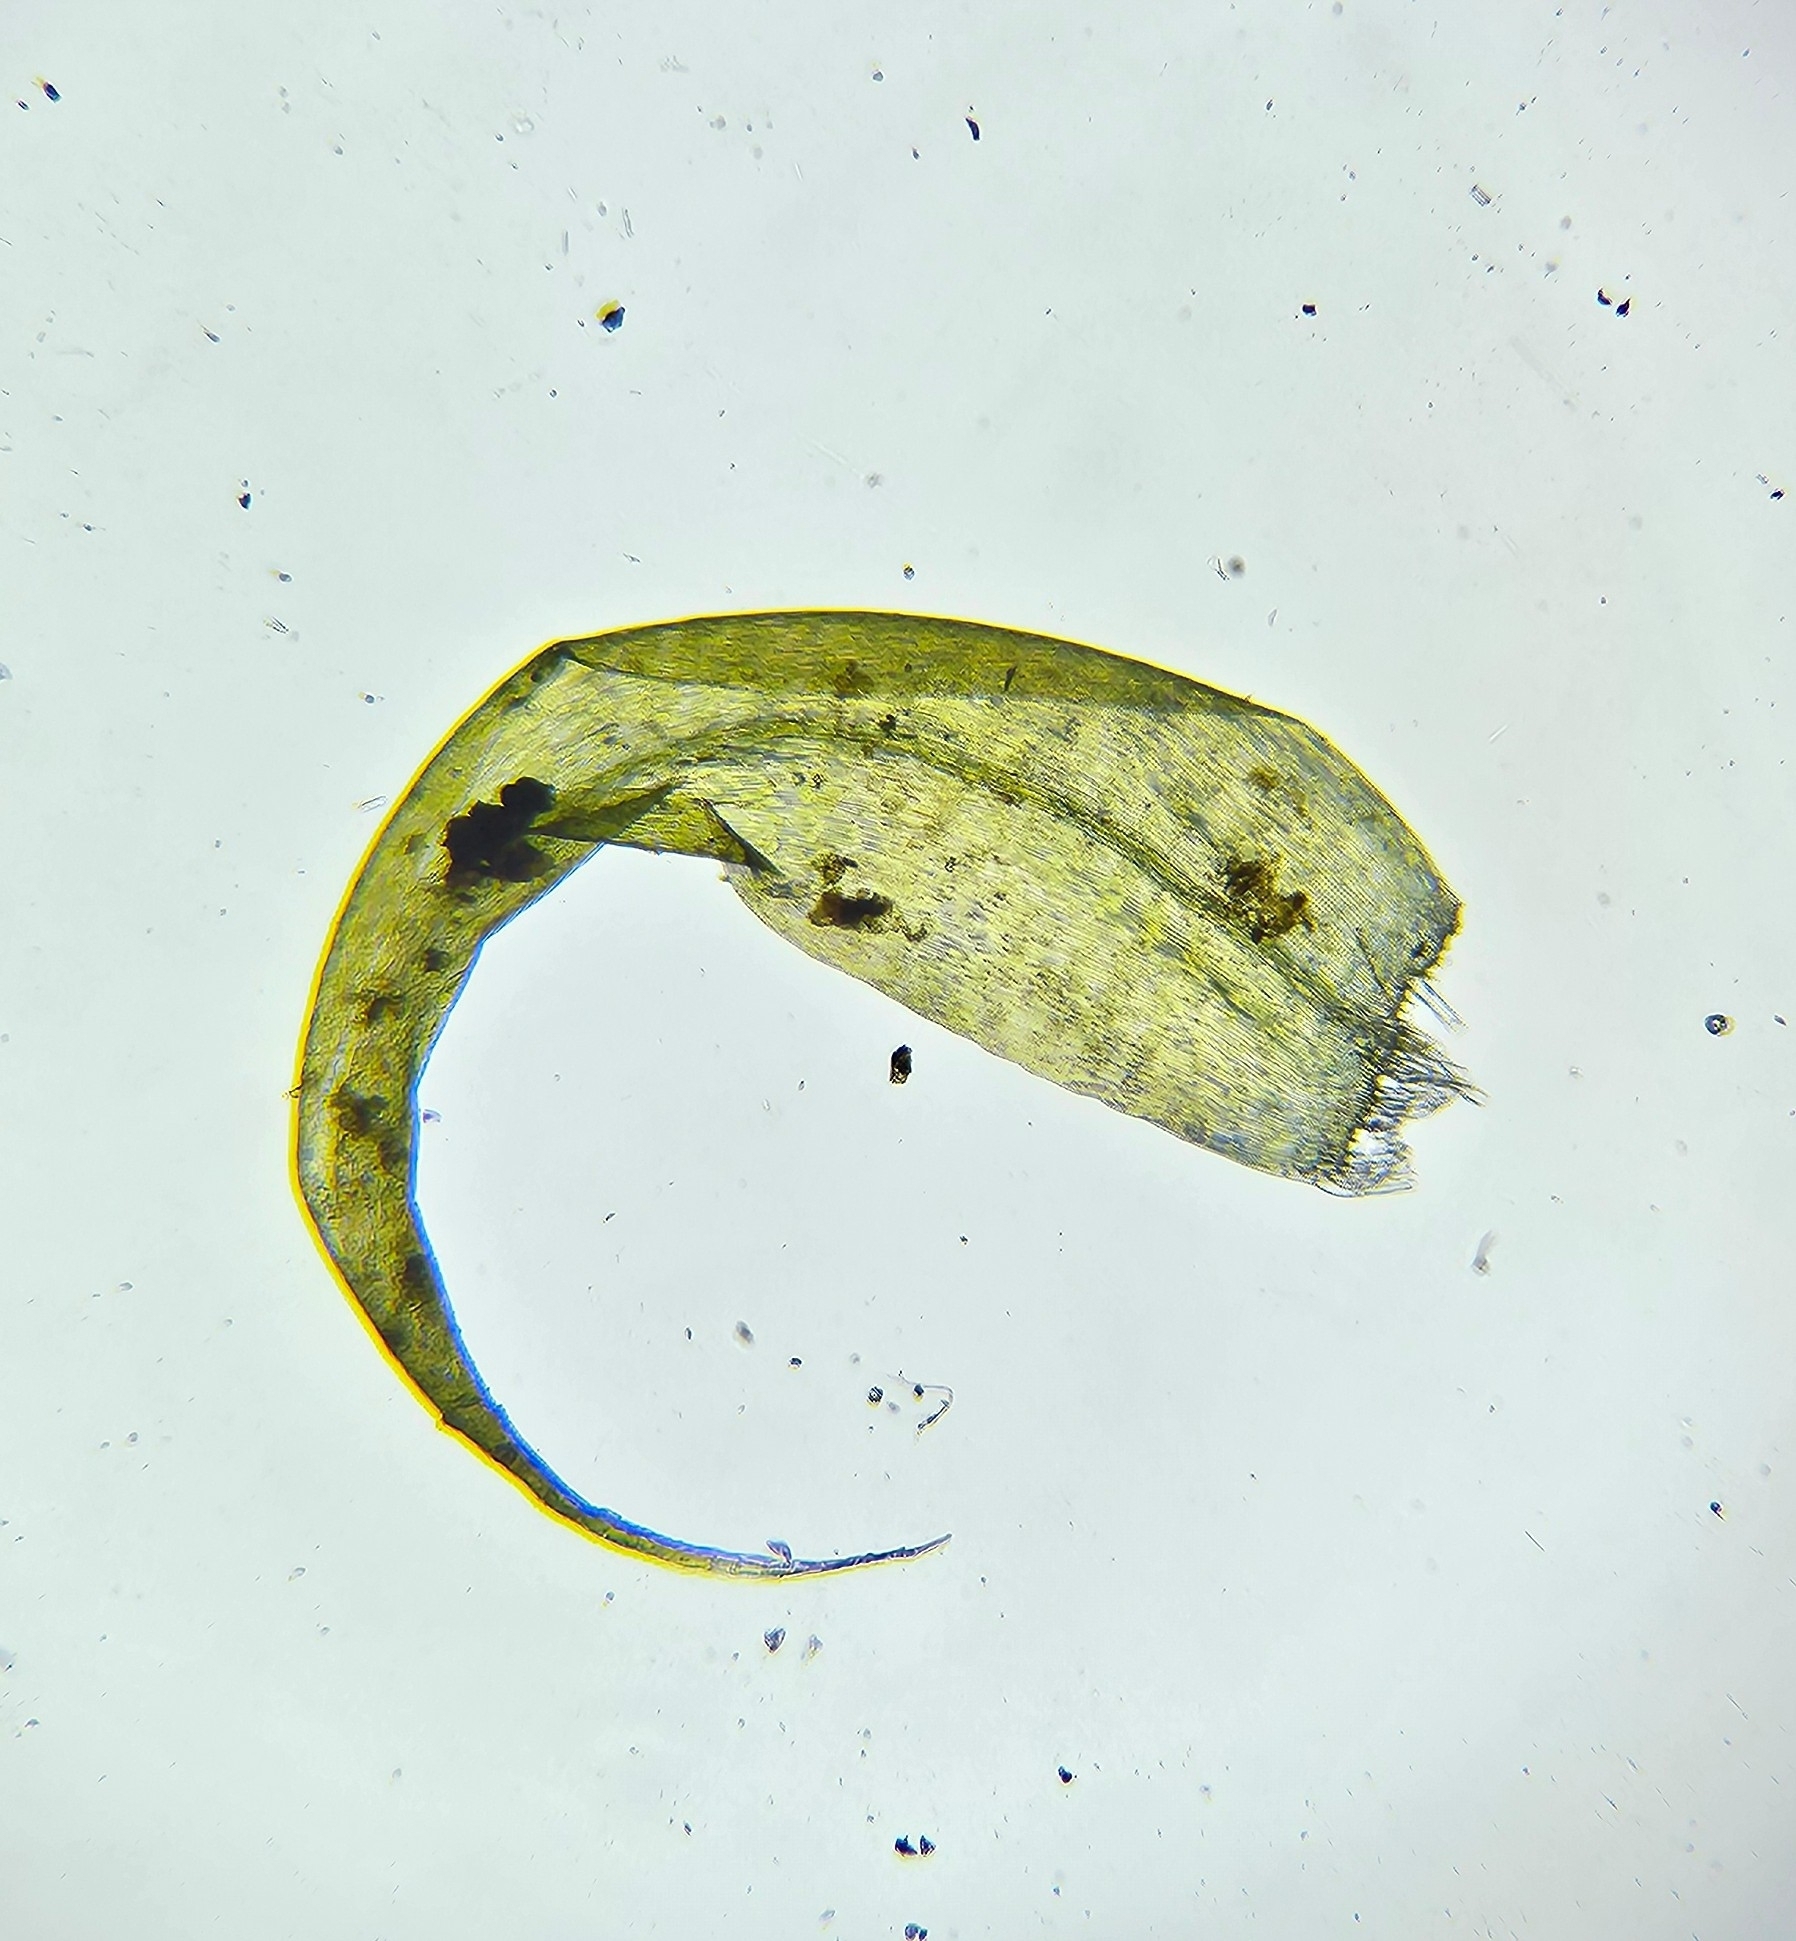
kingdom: Plantae
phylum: Bryophyta
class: Bryopsida
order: Hypnales
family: Scorpidiaceae
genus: Scorpidium
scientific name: Scorpidium revolvens
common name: Rusty hook moss
